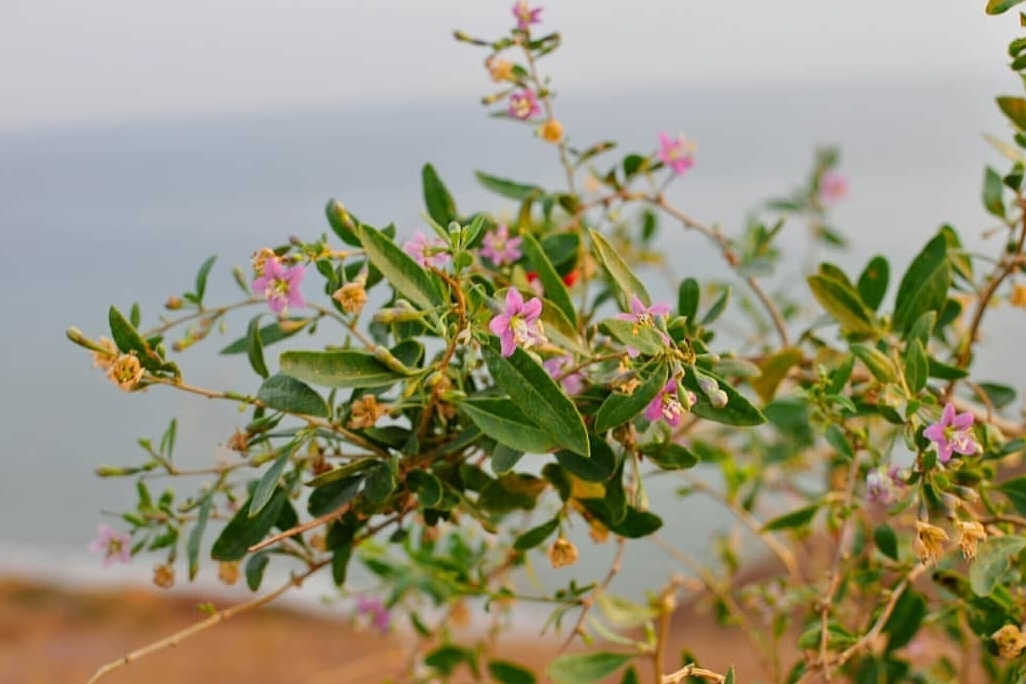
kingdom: Plantae
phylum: Tracheophyta
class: Magnoliopsida
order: Solanales
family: Solanaceae
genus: Lycium
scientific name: Lycium barbarum
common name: Duke of argyll's teaplant
